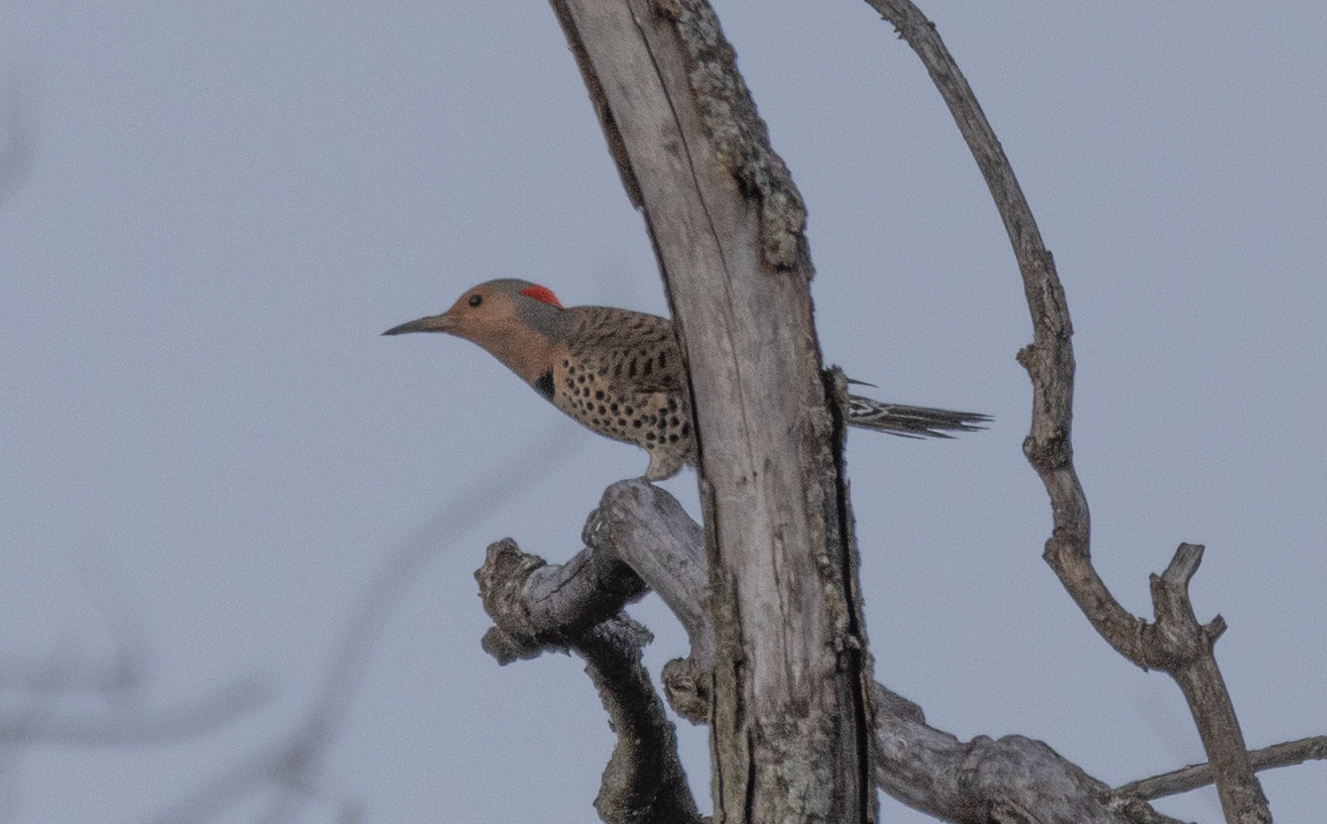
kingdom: Animalia
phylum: Chordata
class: Aves
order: Piciformes
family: Picidae
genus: Colaptes
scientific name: Colaptes auratus
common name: Northern flicker
